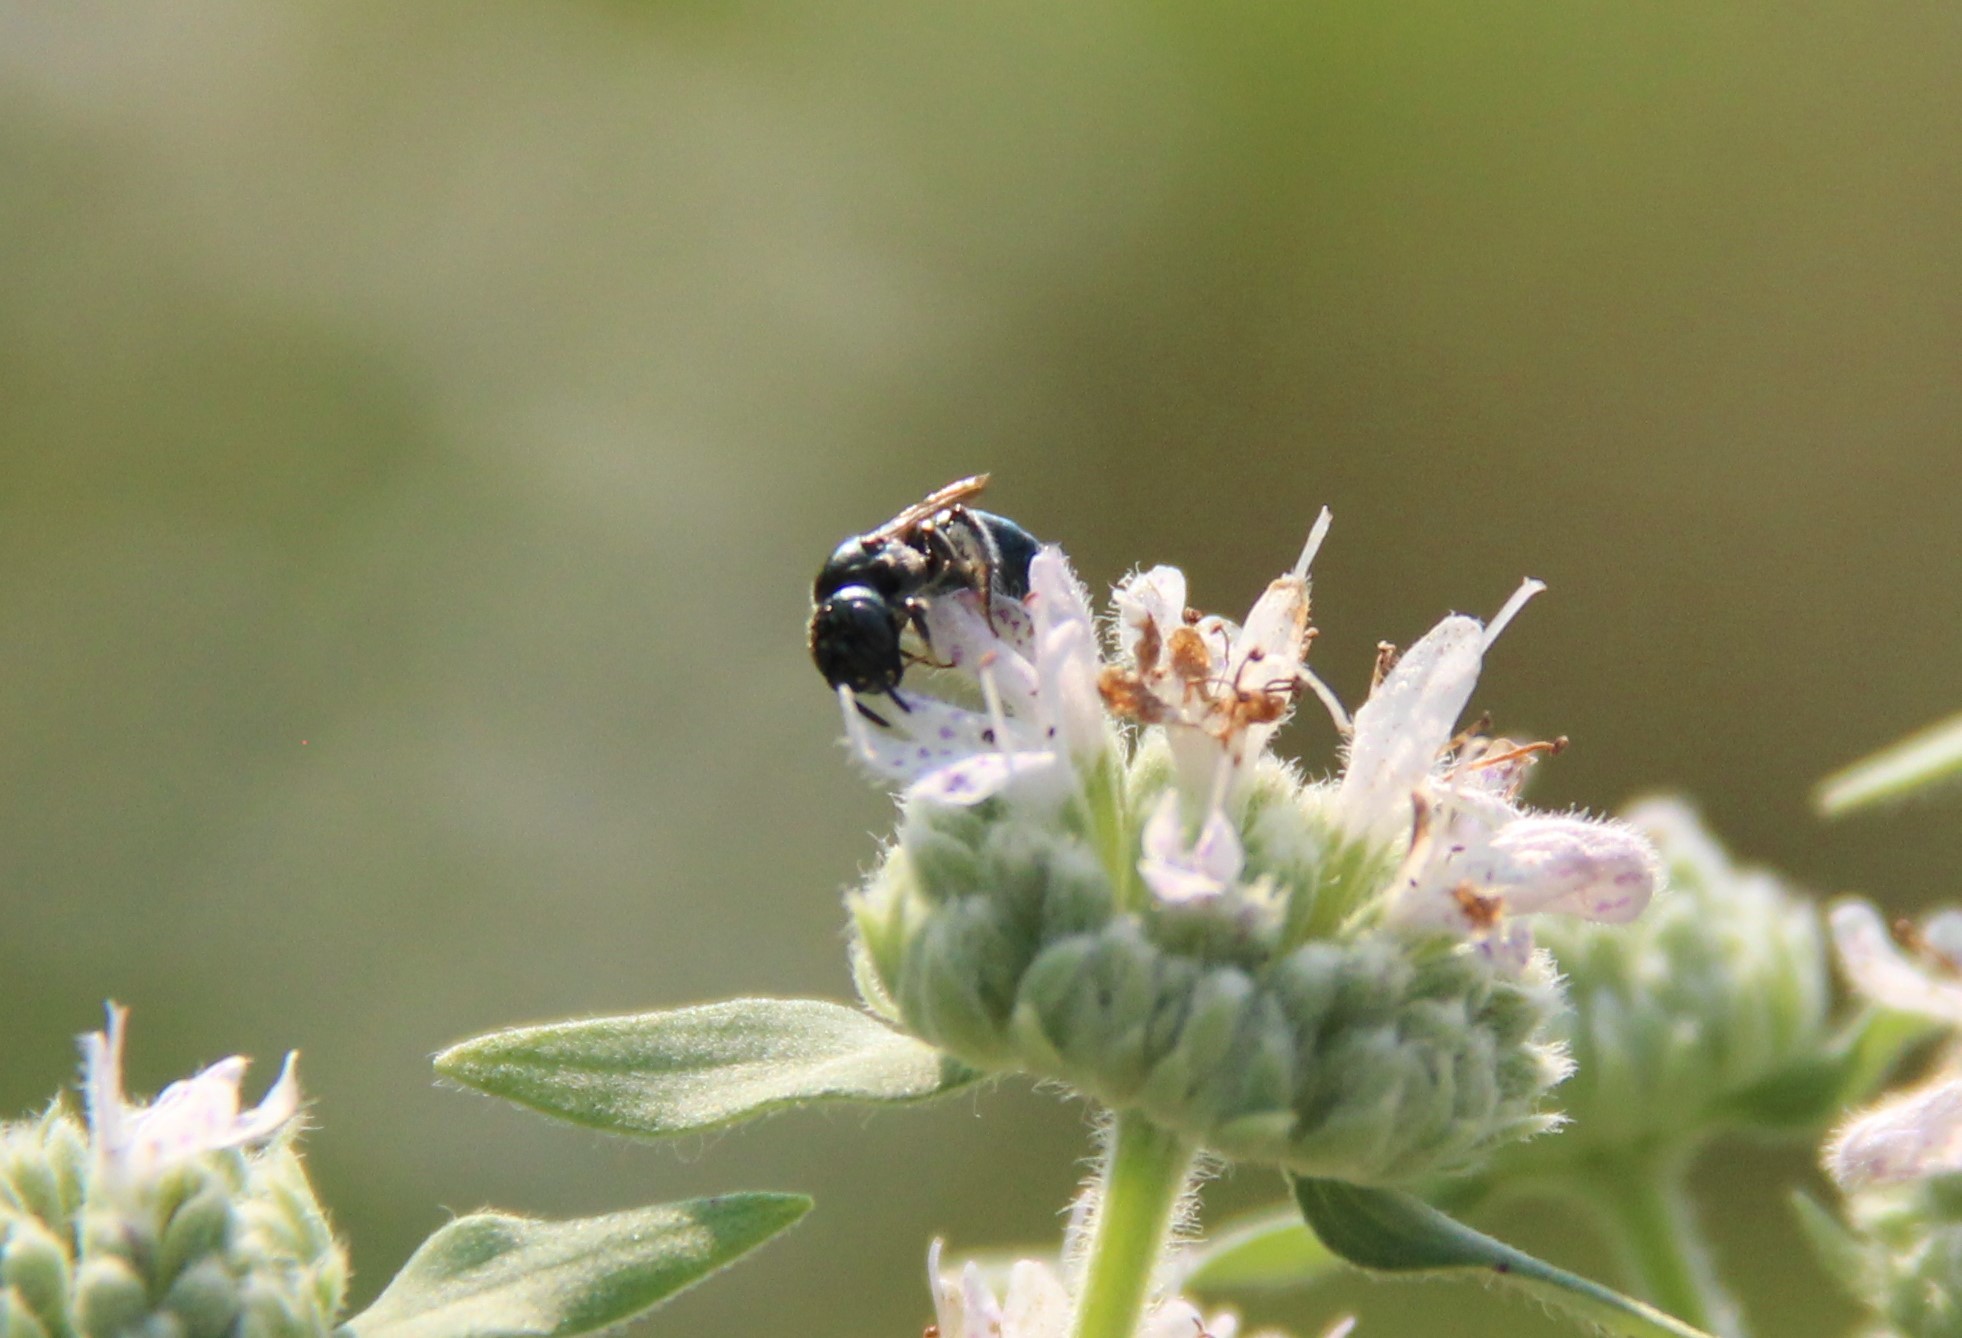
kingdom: Animalia
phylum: Arthropoda
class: Insecta
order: Hymenoptera
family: Apidae
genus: Zadontomerus
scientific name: Zadontomerus
